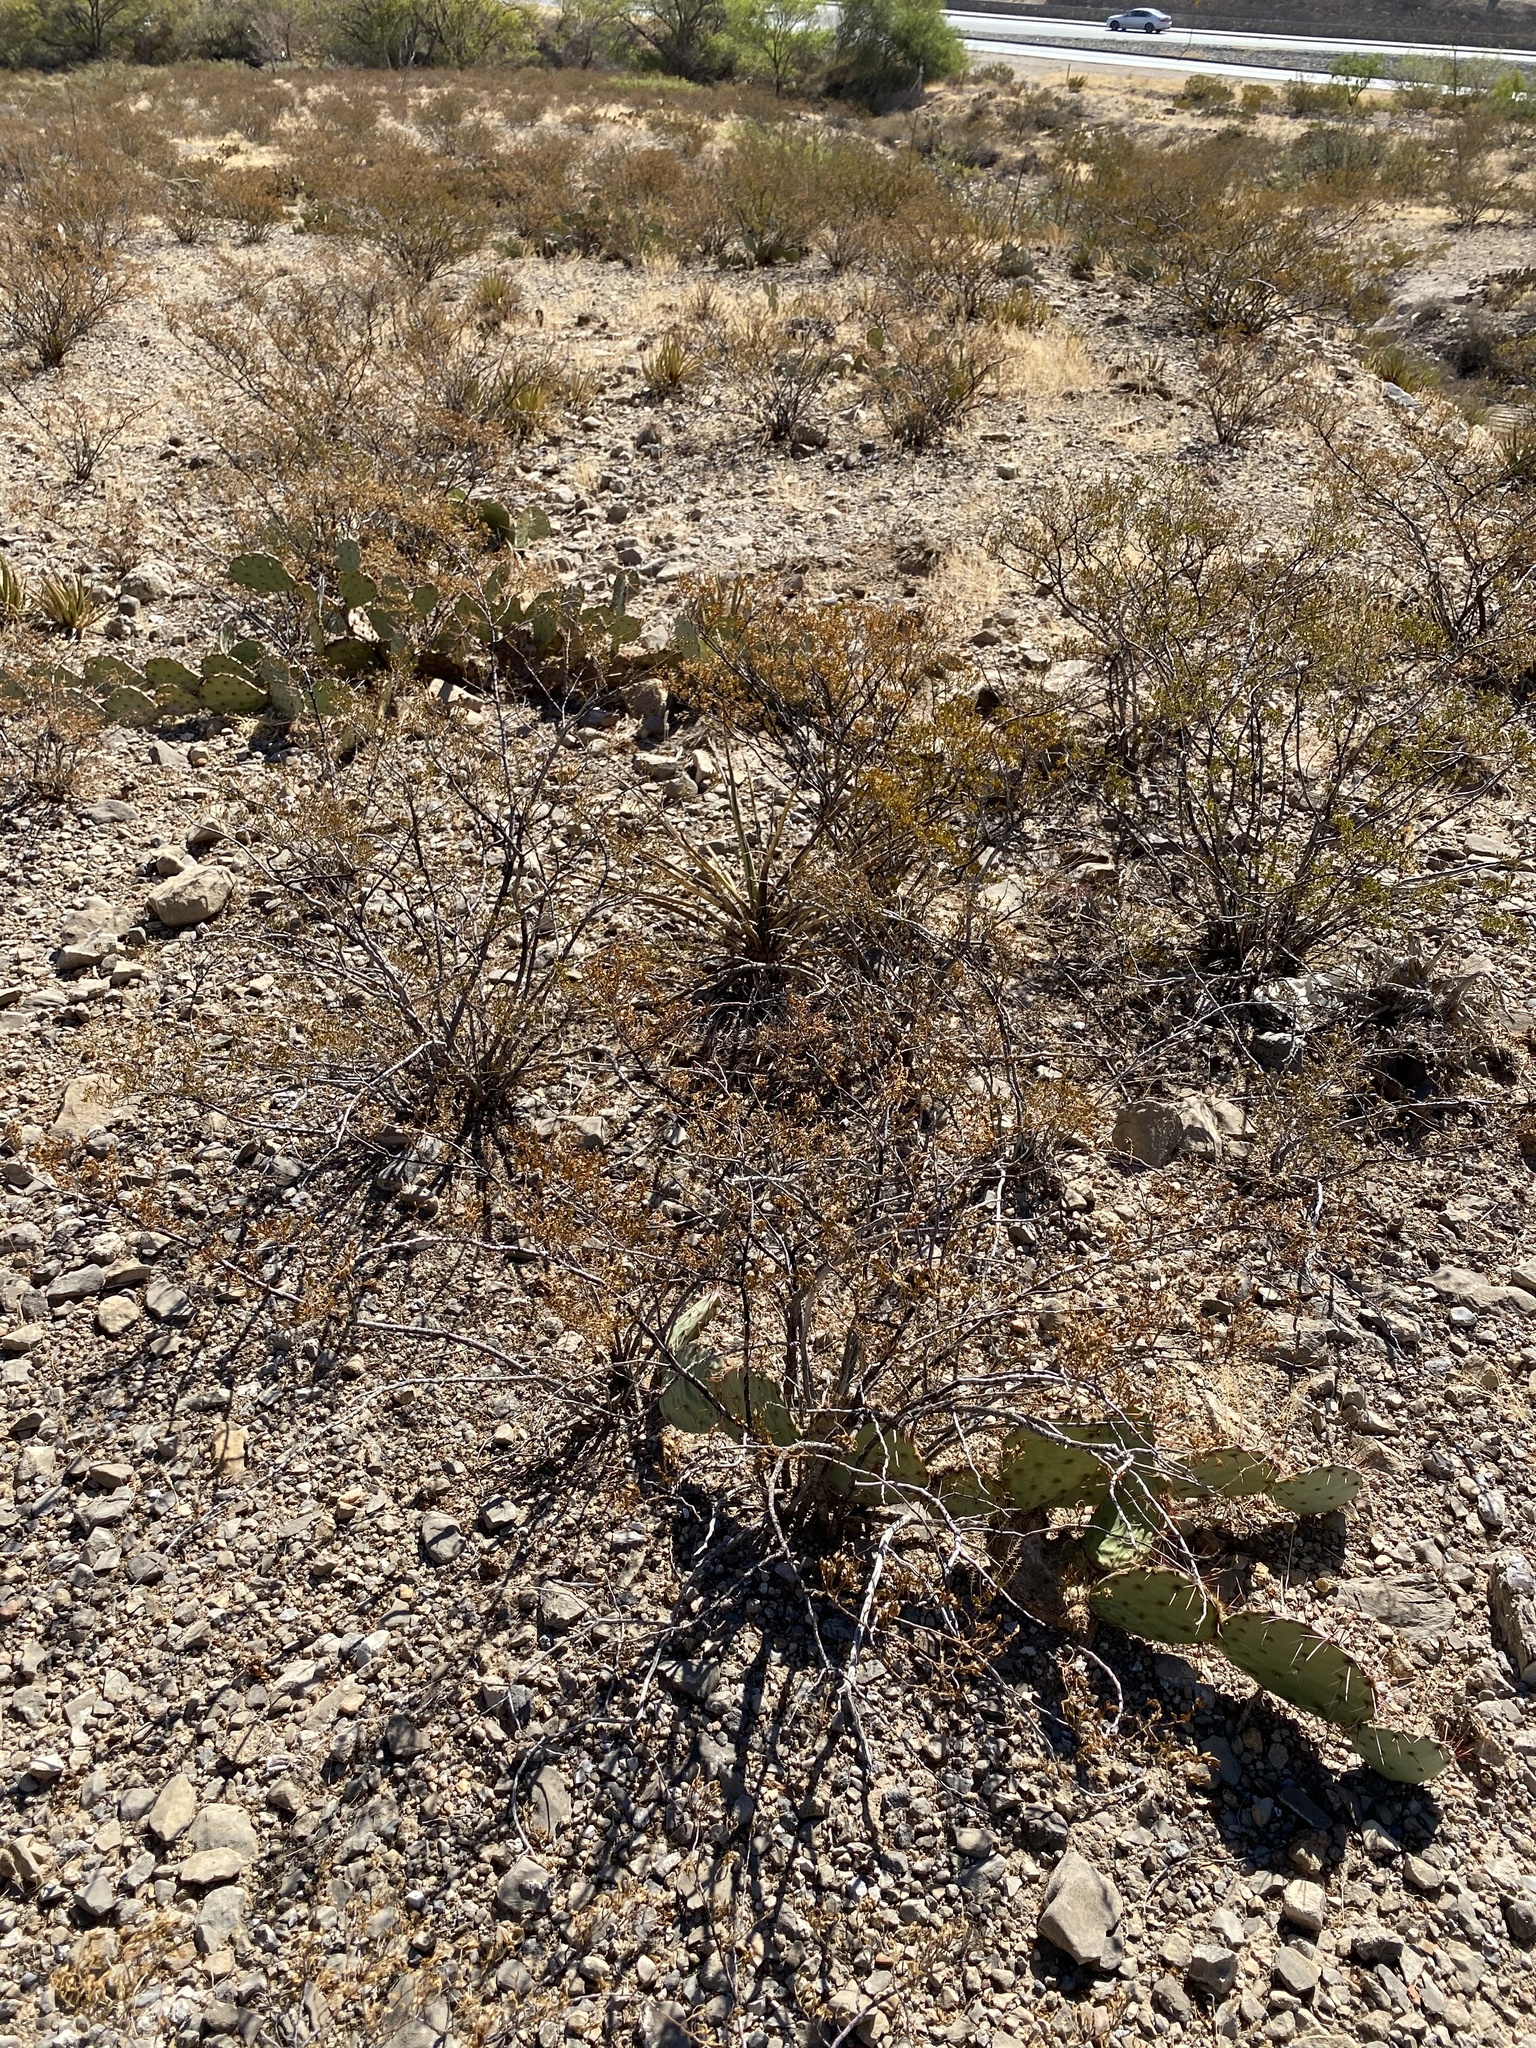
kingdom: Plantae
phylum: Tracheophyta
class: Magnoliopsida
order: Zygophyllales
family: Zygophyllaceae
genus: Larrea
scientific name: Larrea tridentata
